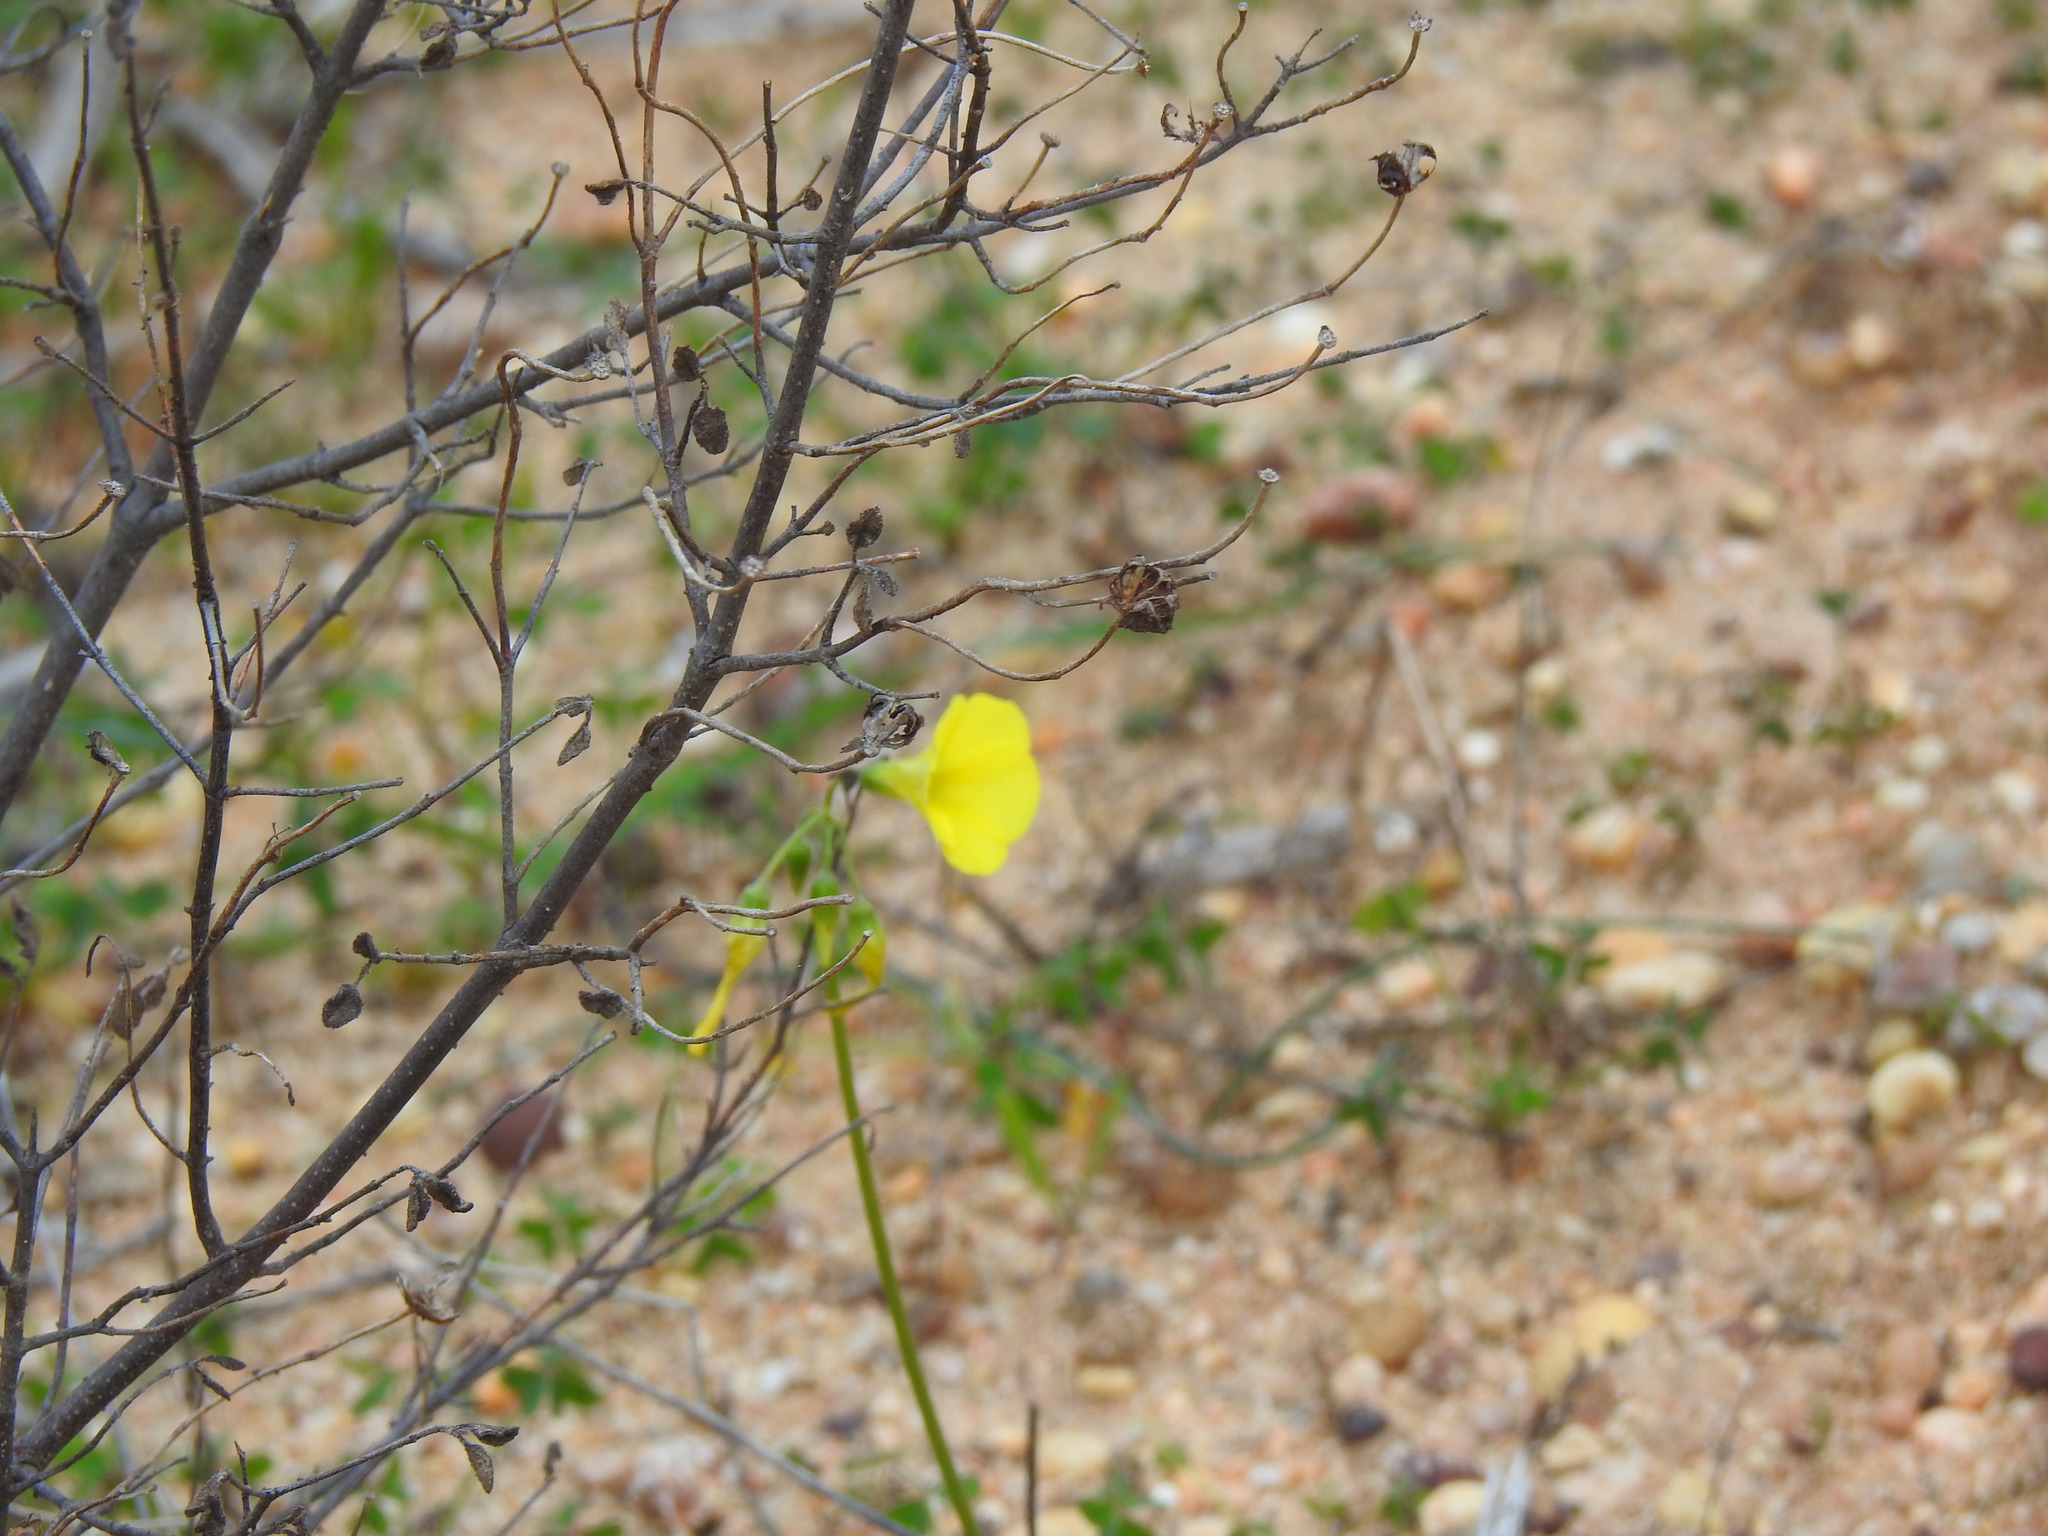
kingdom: Plantae
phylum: Tracheophyta
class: Magnoliopsida
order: Oxalidales
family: Oxalidaceae
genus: Oxalis
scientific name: Oxalis pes-caprae
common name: Bermuda-buttercup
